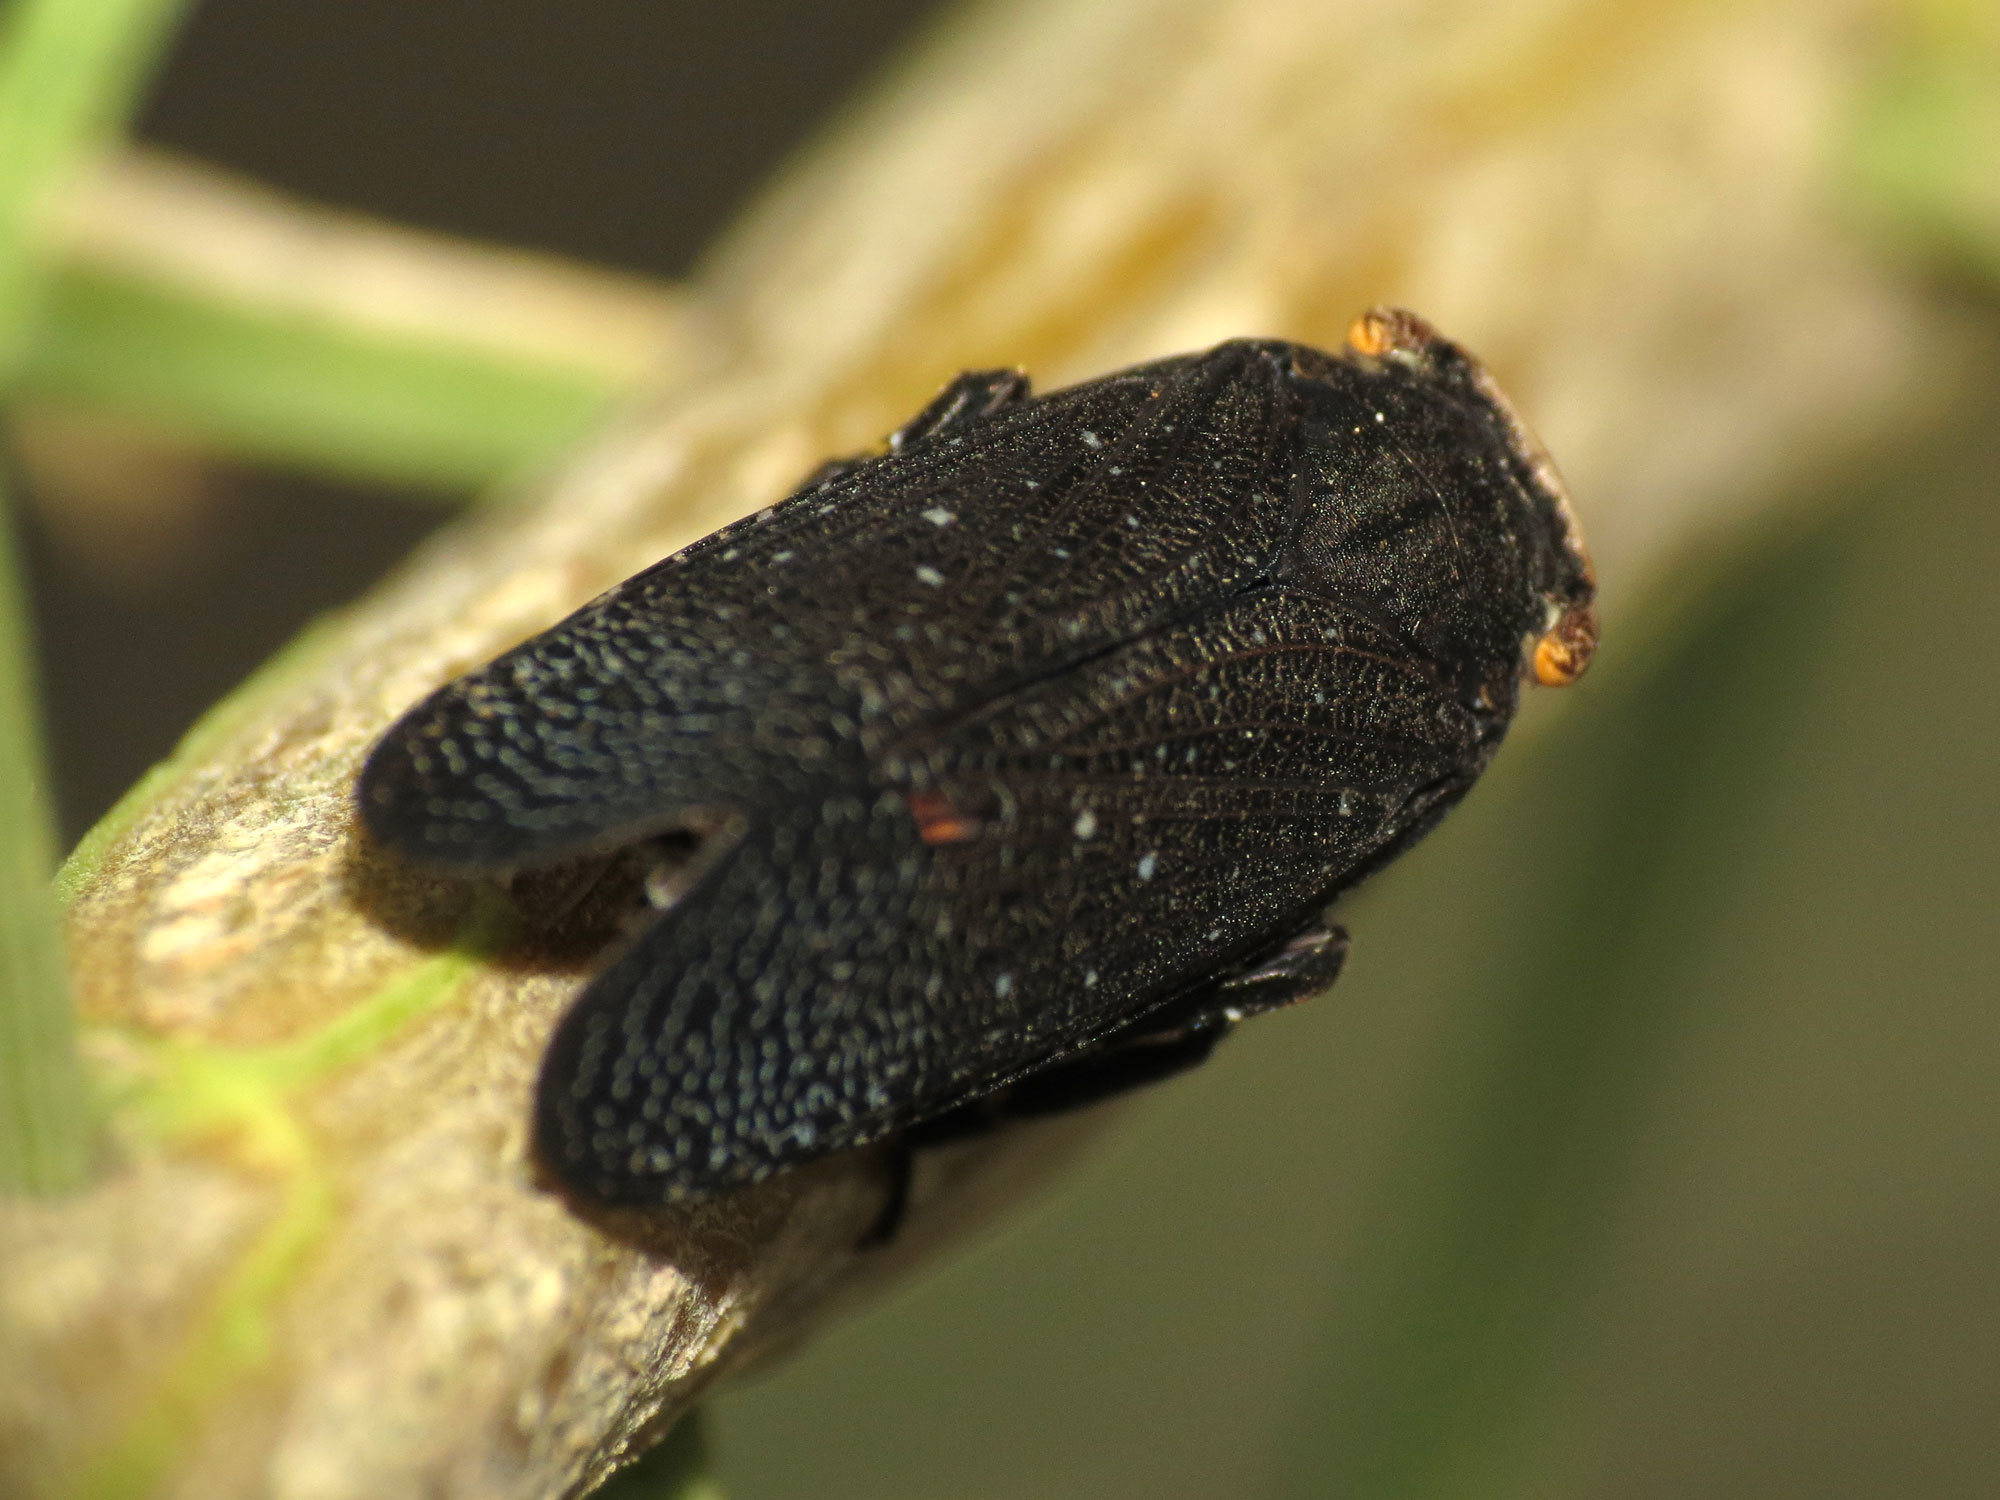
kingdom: Animalia
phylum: Arthropoda
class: Insecta
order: Hemiptera
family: Fulgoridae
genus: Crepusia
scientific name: Crepusia fuliginosa
